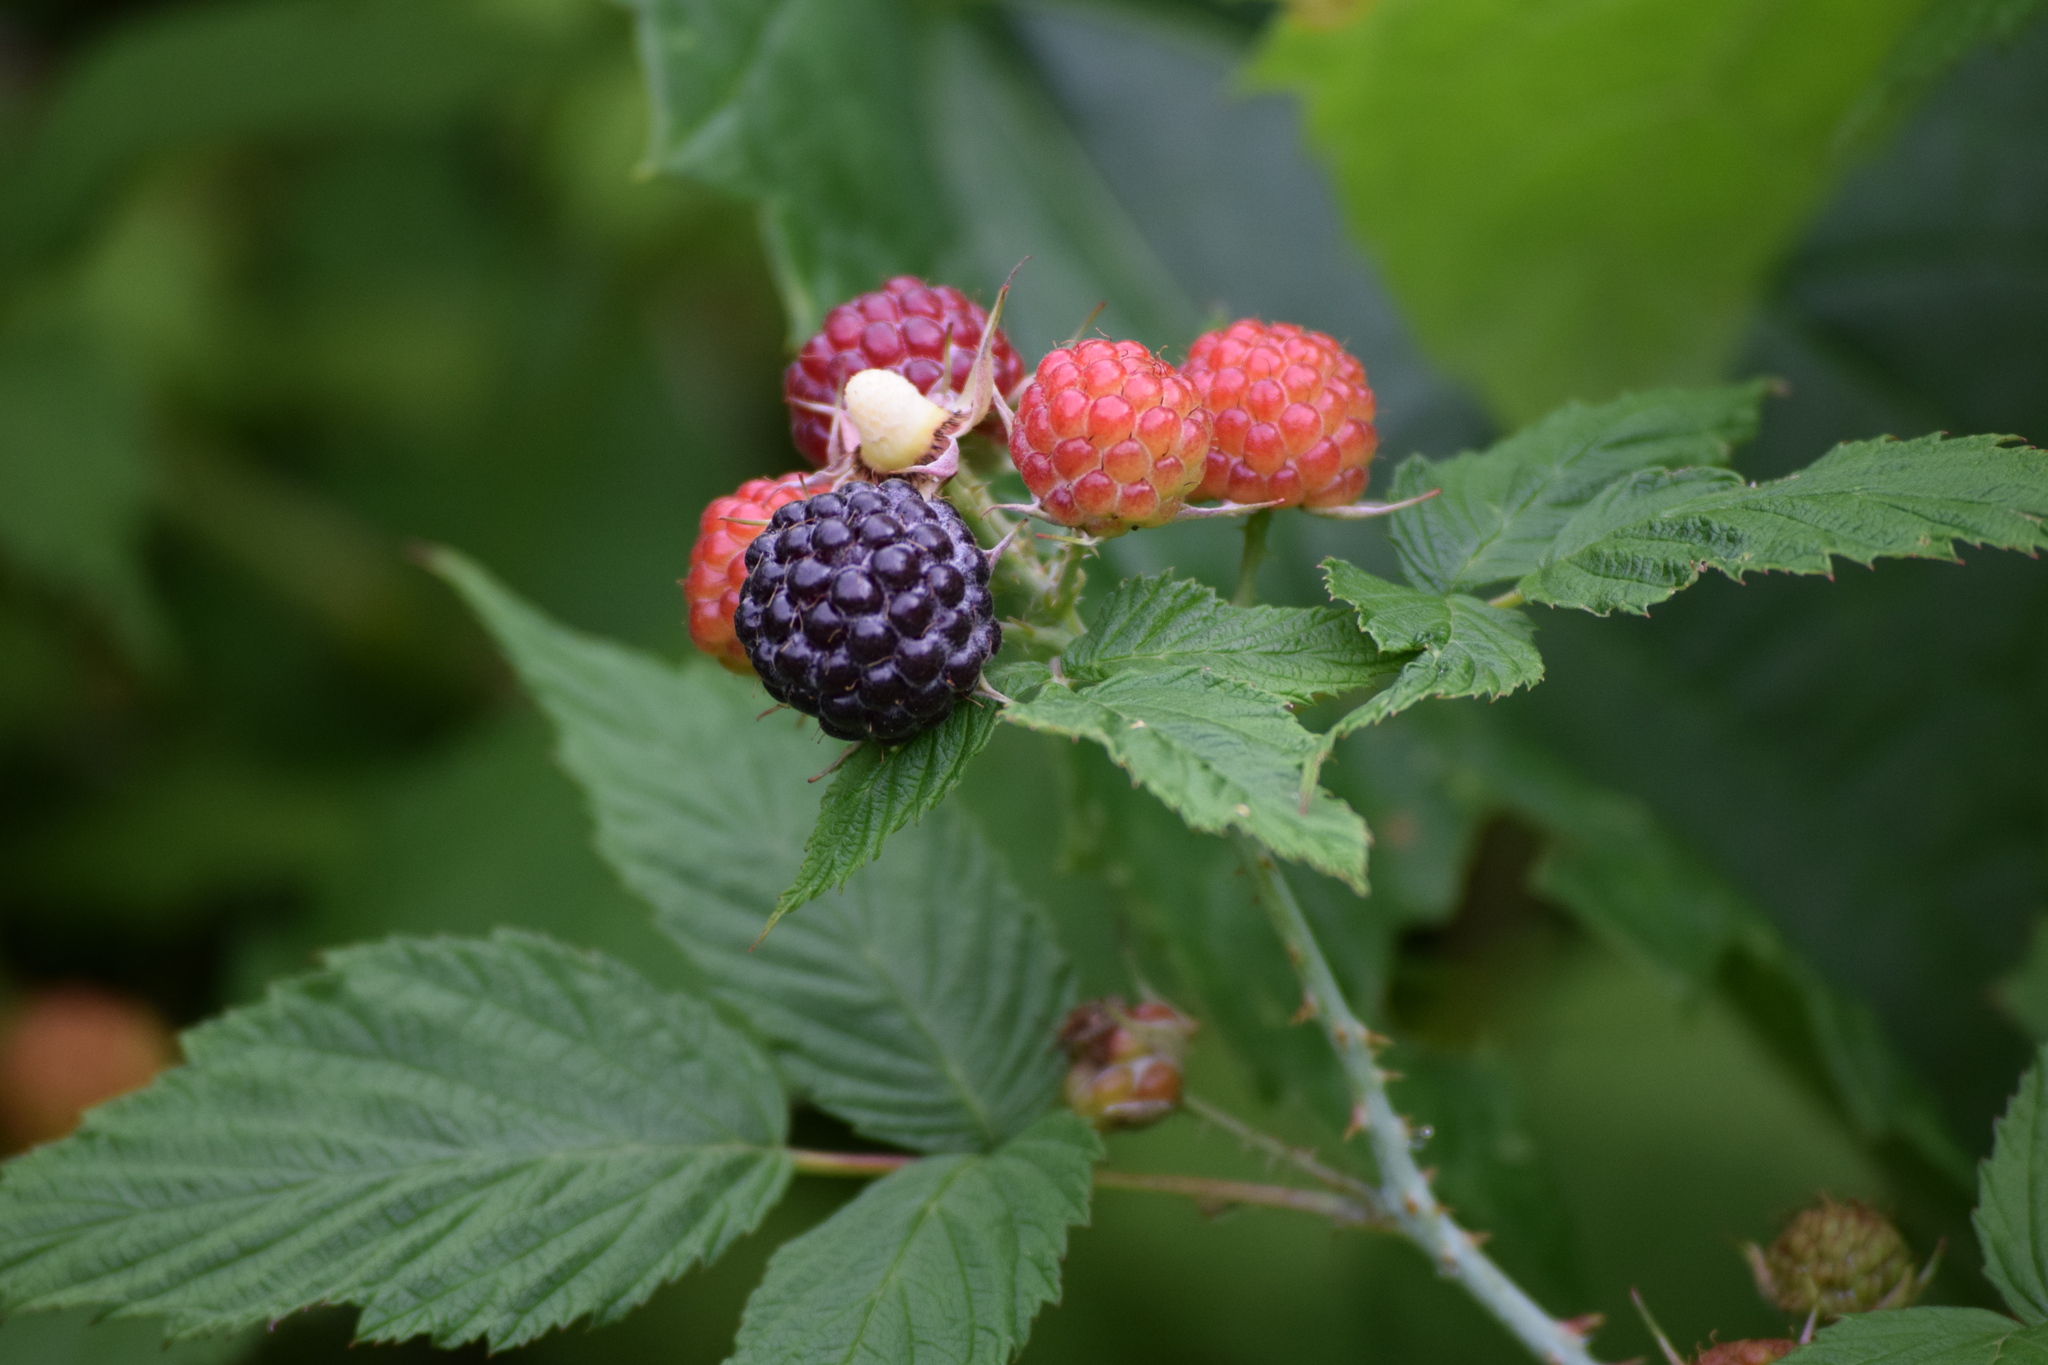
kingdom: Plantae
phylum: Tracheophyta
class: Magnoliopsida
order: Rosales
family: Rosaceae
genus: Rubus
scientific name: Rubus occidentalis
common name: Black raspberry
